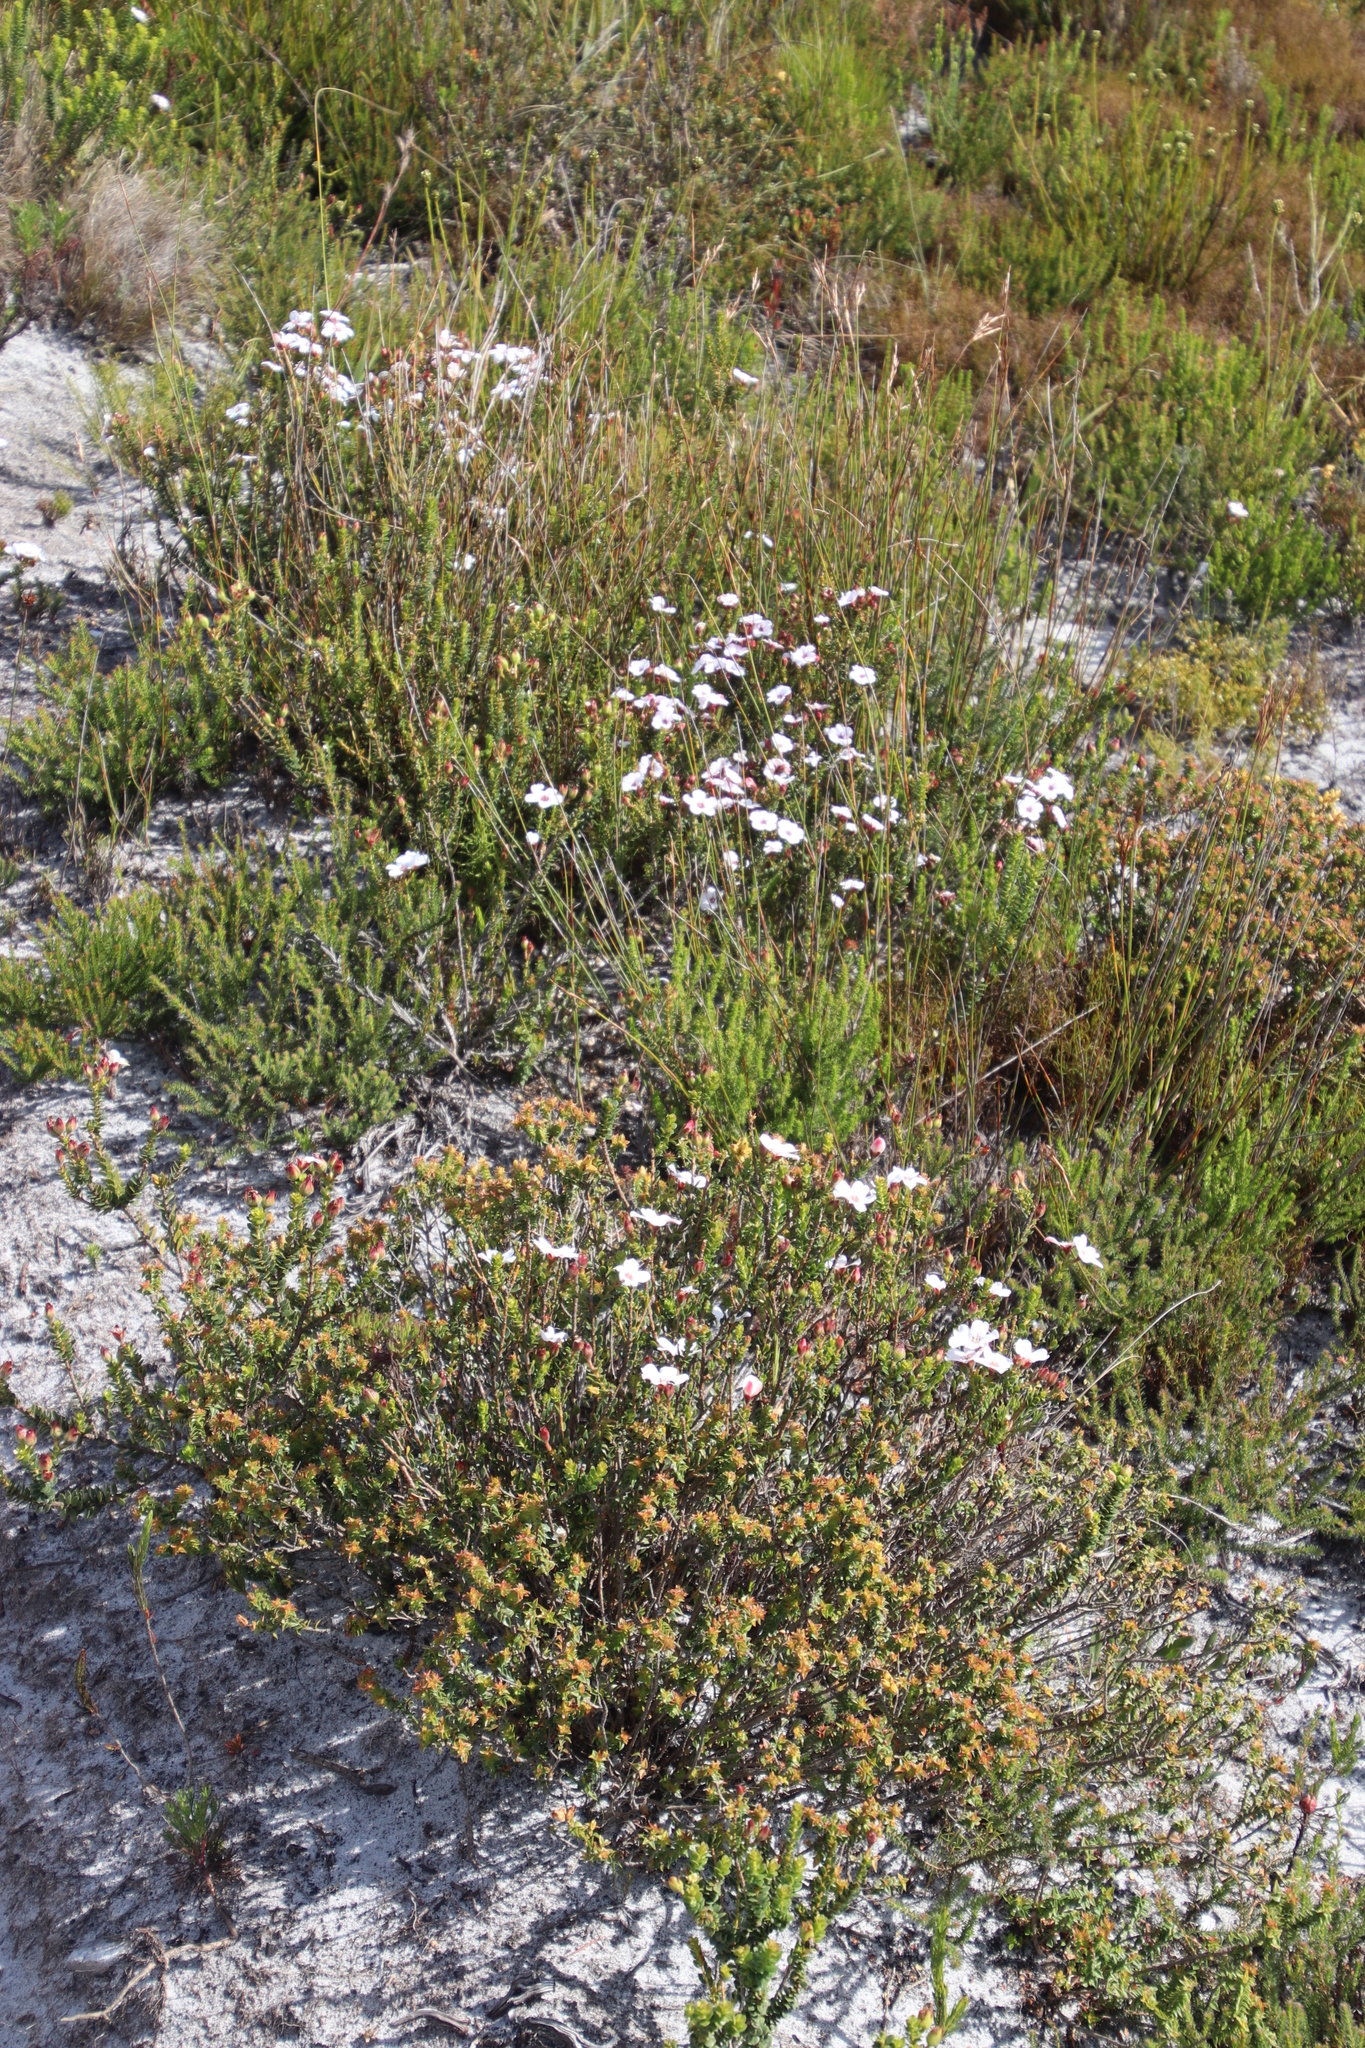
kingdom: Plantae
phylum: Tracheophyta
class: Magnoliopsida
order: Sapindales
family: Rutaceae
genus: Adenandra
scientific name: Adenandra villosa
